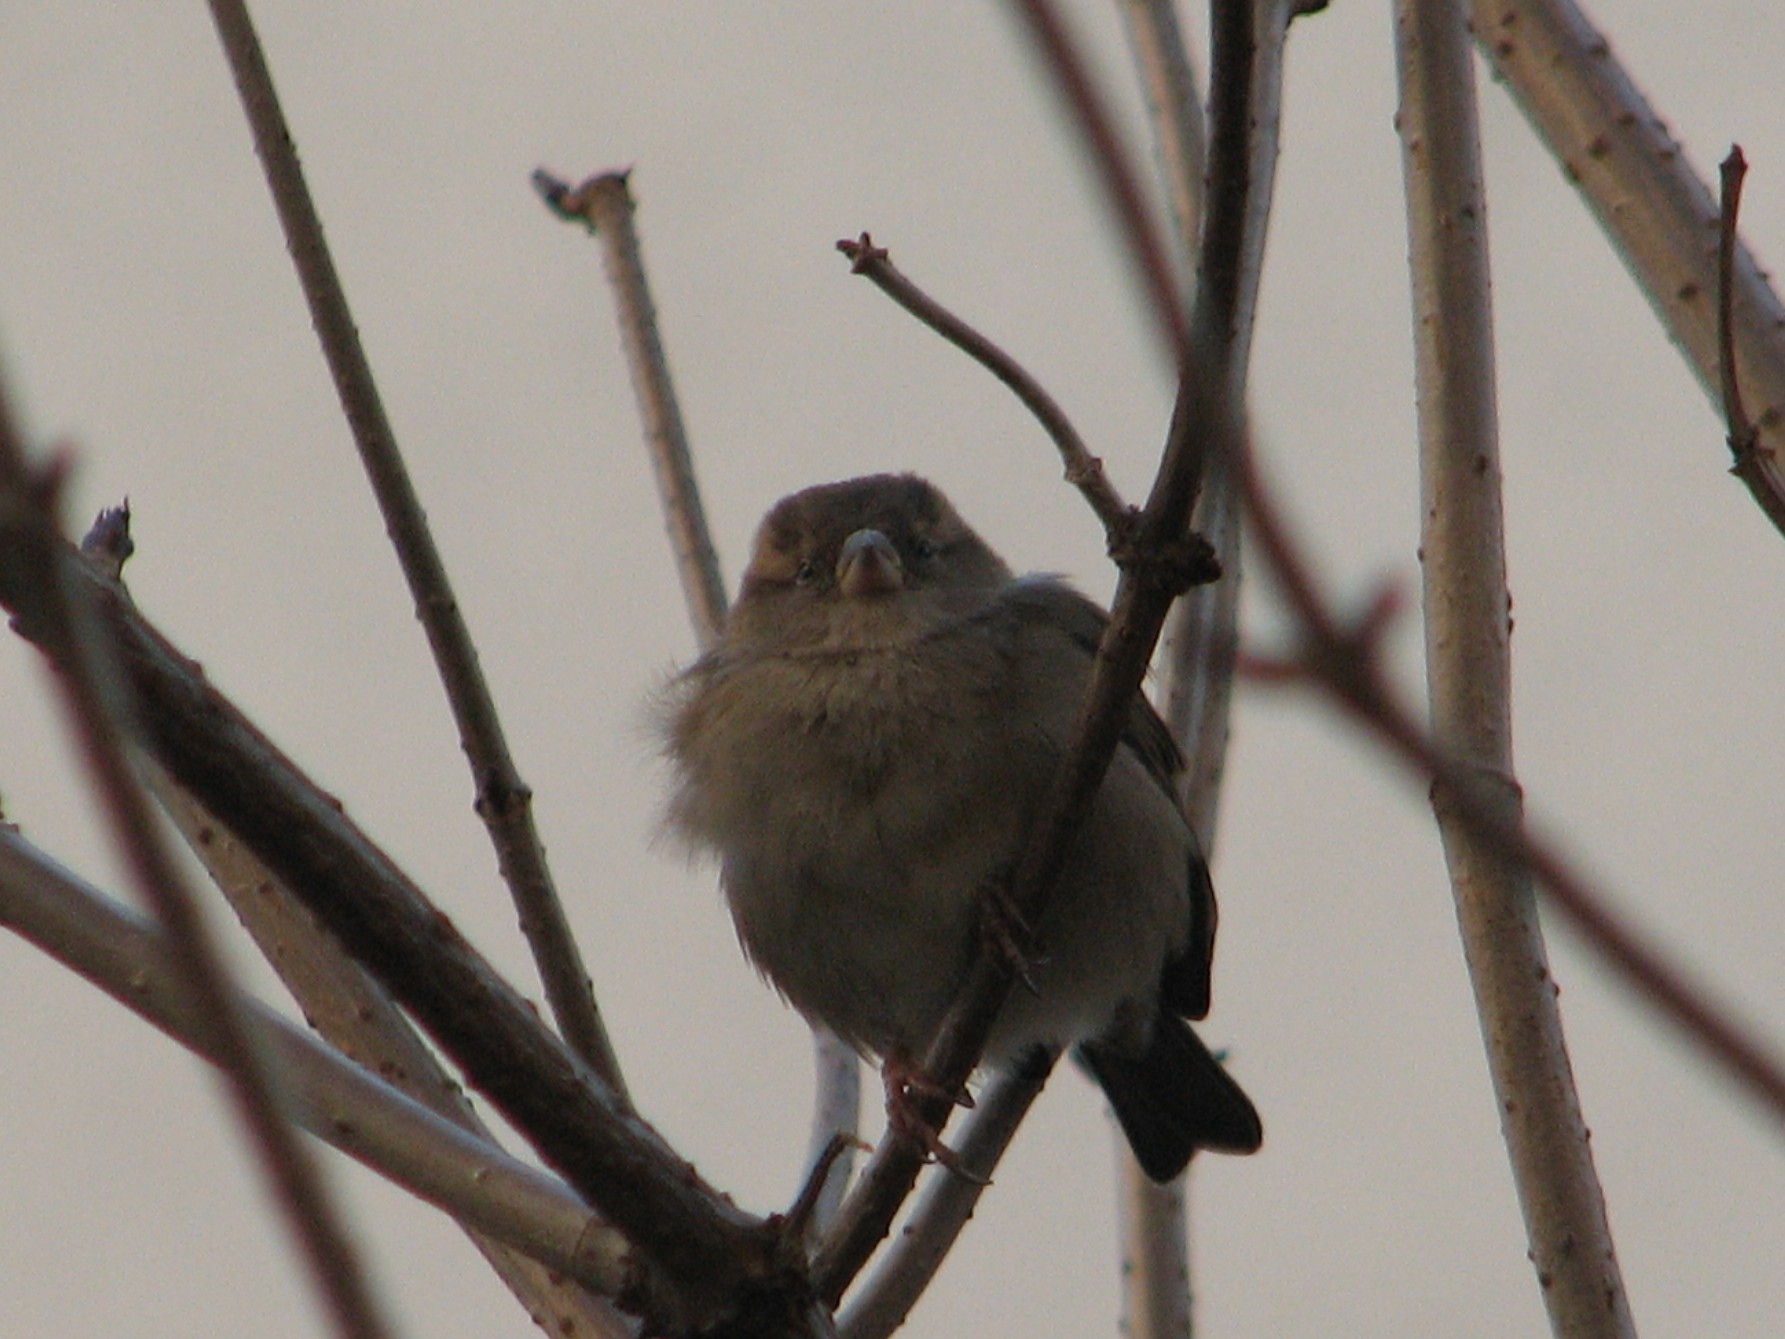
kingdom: Animalia
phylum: Chordata
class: Aves
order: Passeriformes
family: Passeridae
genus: Passer
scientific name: Passer domesticus
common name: House sparrow
